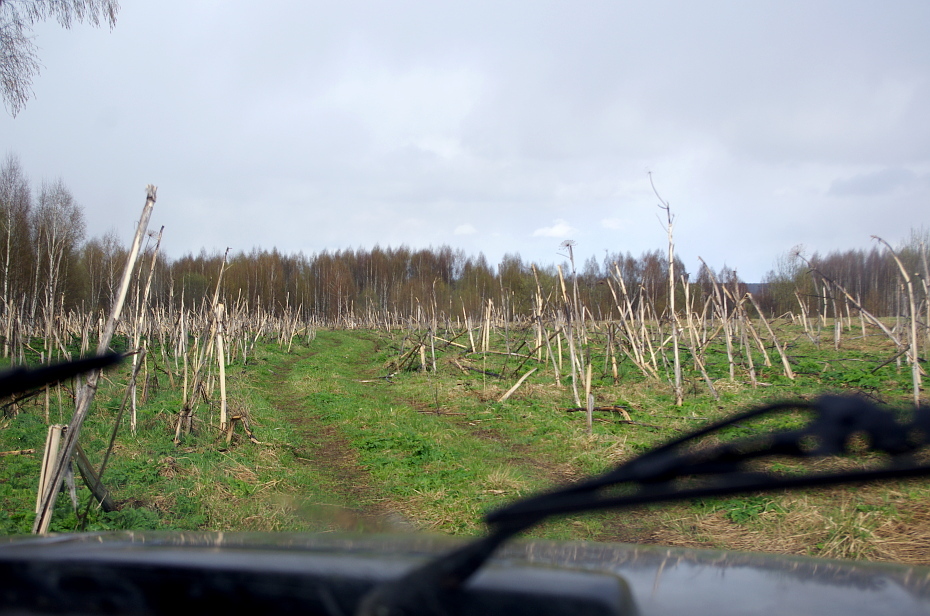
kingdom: Plantae
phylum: Tracheophyta
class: Magnoliopsida
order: Apiales
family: Apiaceae
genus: Heracleum
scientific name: Heracleum sosnowskyi
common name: Sosnowsky's hogweed
